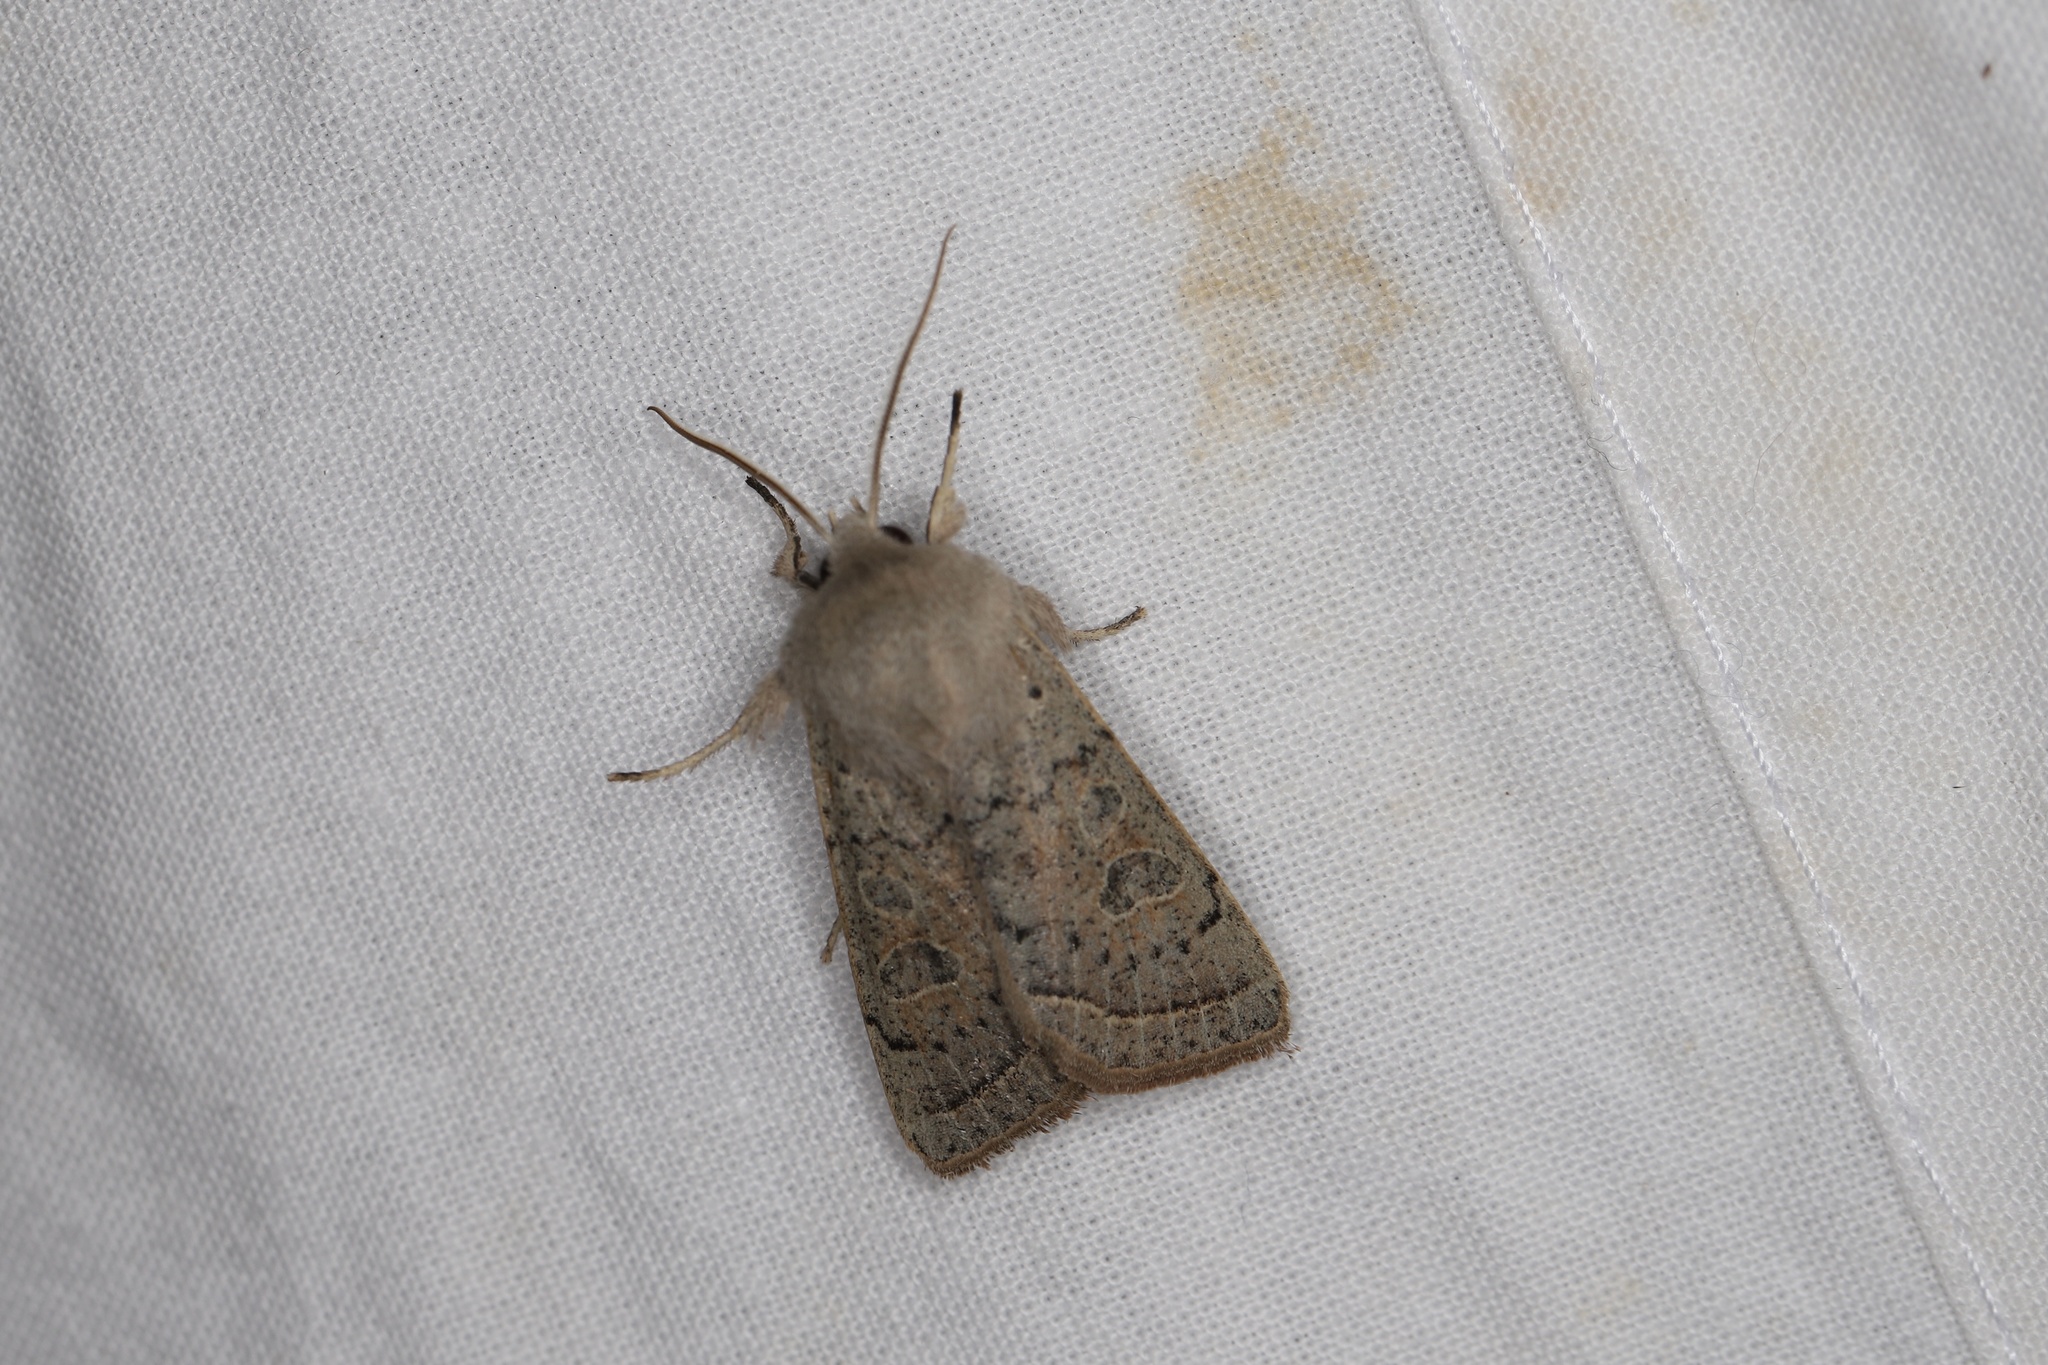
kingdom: Animalia
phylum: Arthropoda
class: Insecta
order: Lepidoptera
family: Noctuidae
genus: Orthosia
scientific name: Orthosia gracilis
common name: Powdered quaker
